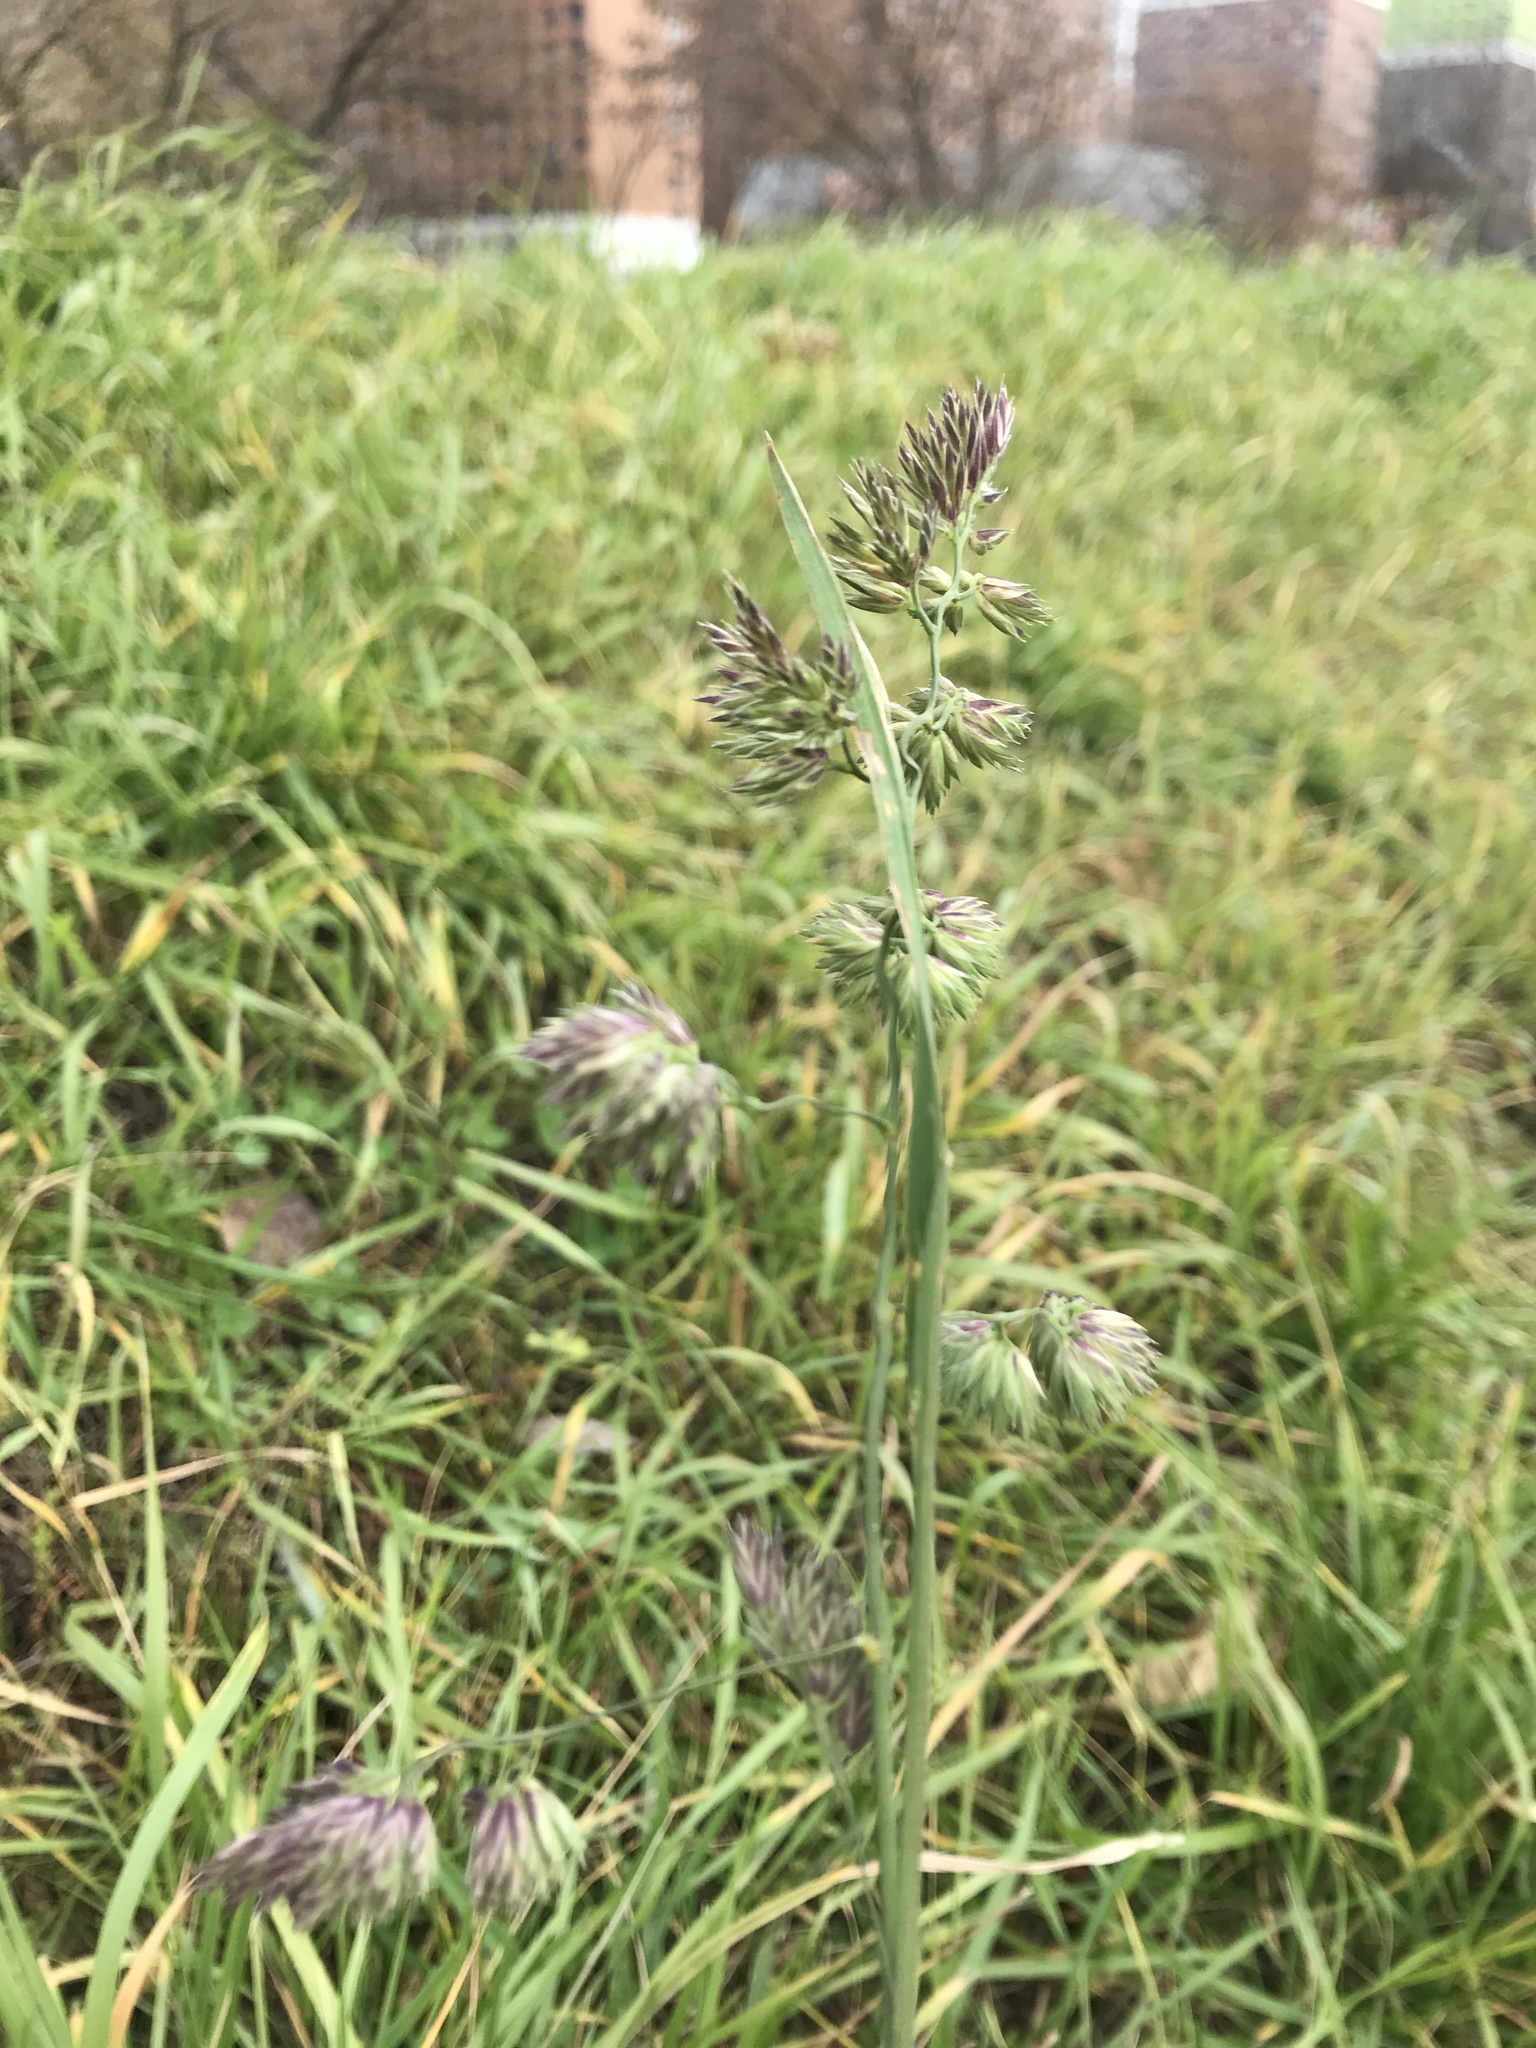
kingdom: Plantae
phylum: Tracheophyta
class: Liliopsida
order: Poales
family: Poaceae
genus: Dactylis
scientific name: Dactylis glomerata
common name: Orchardgrass
